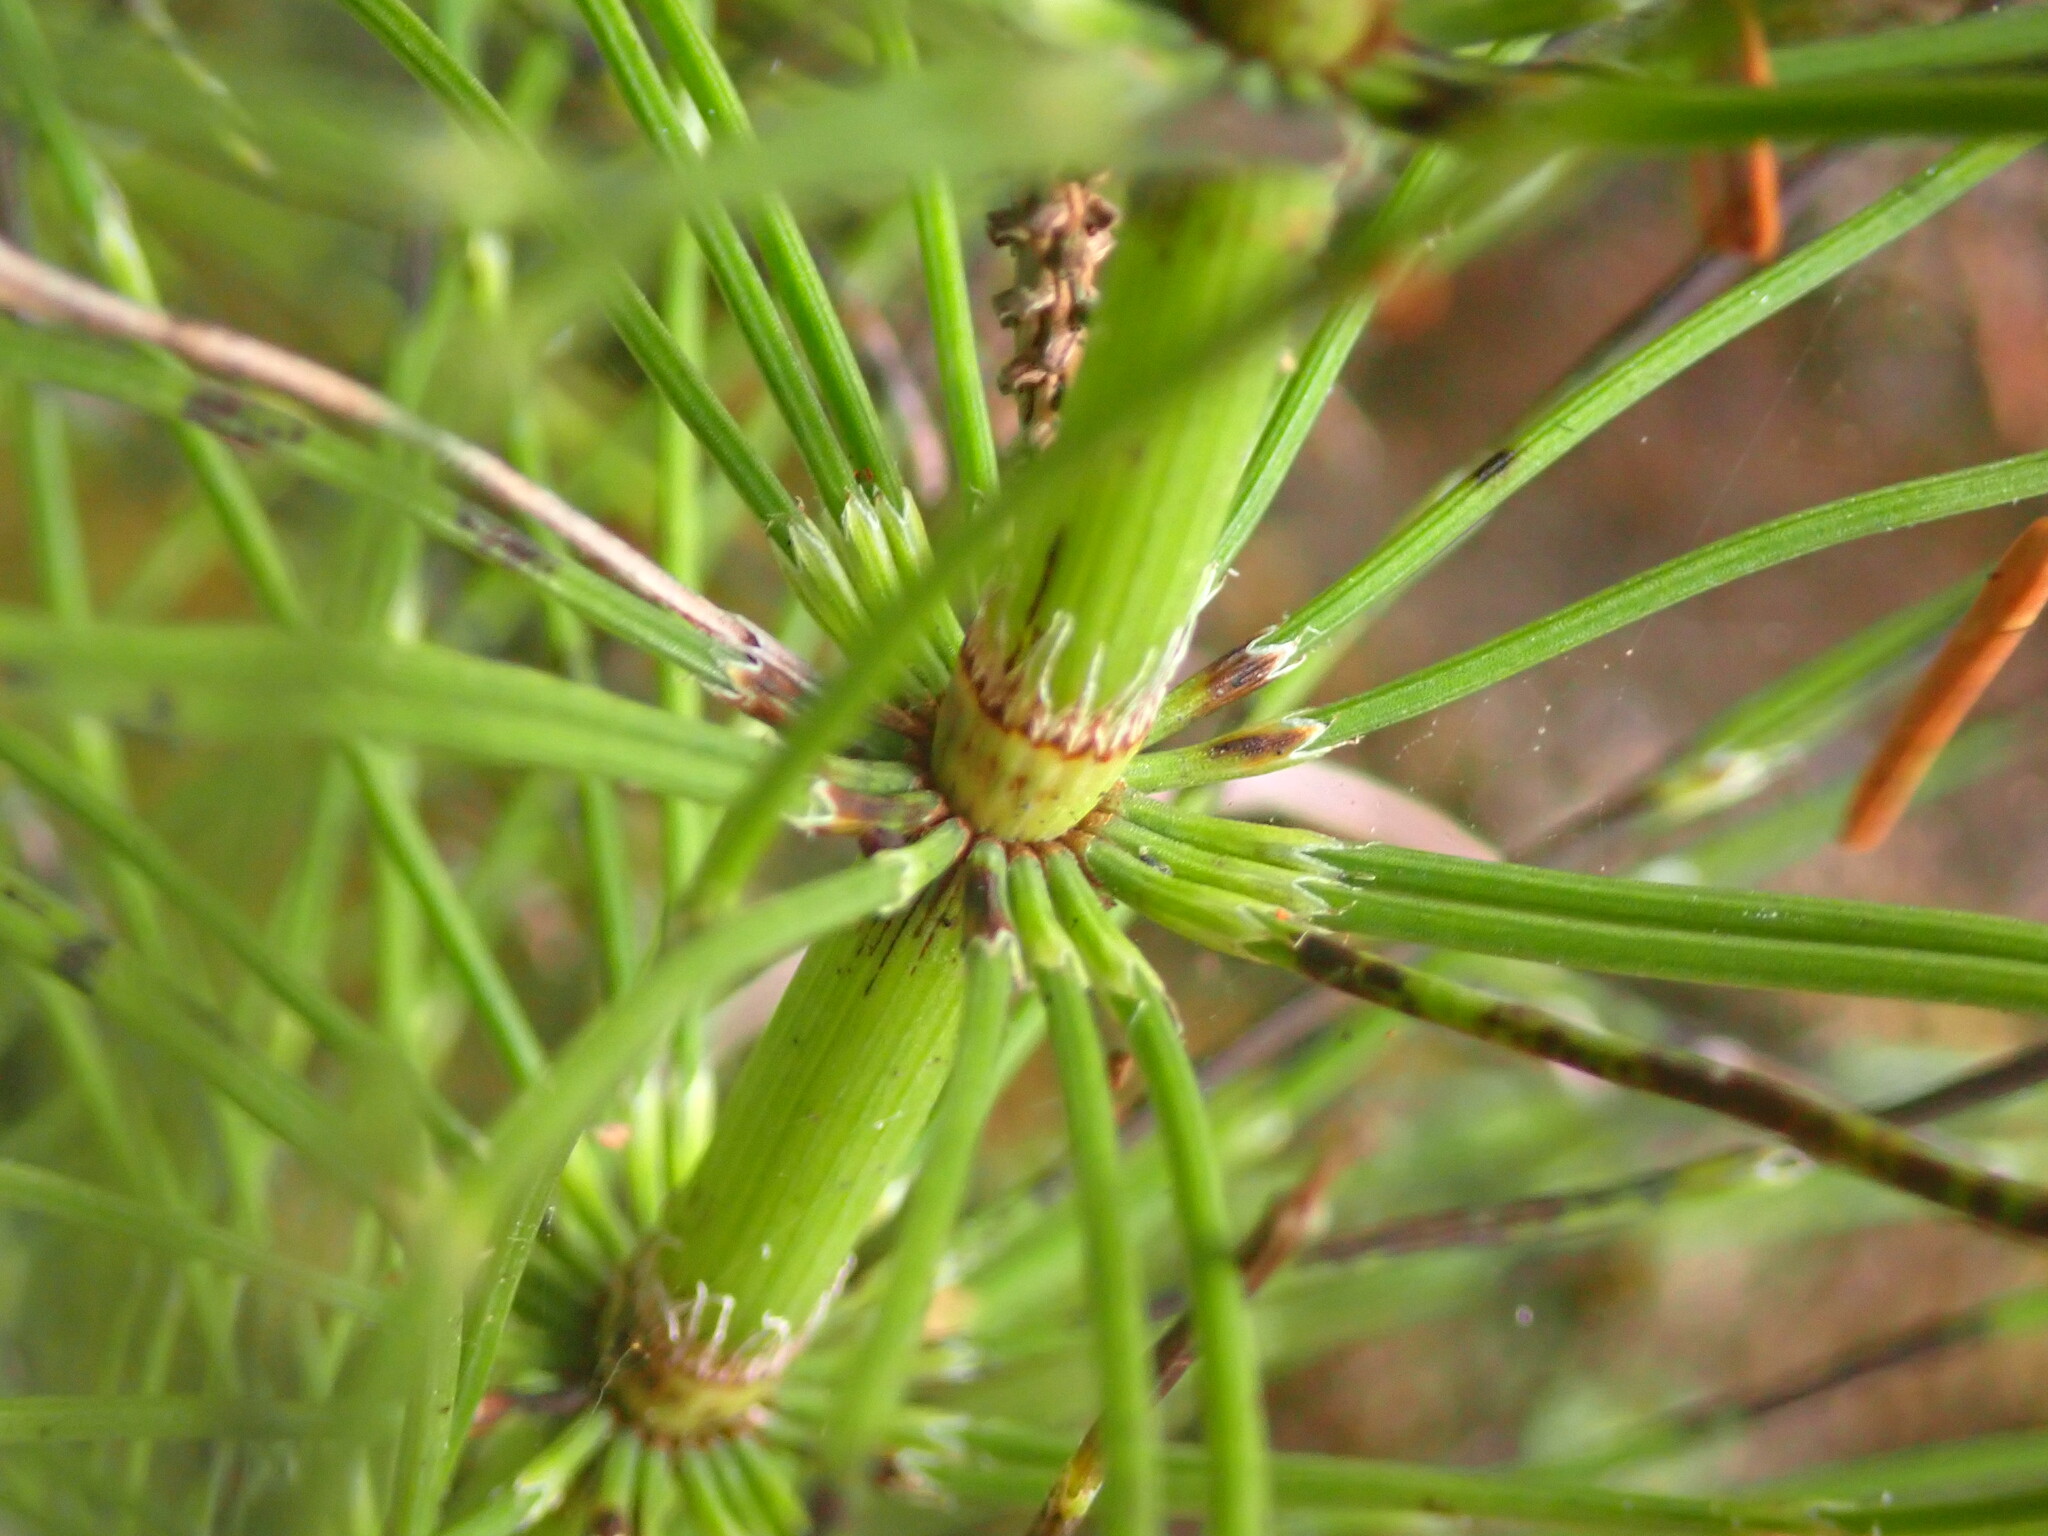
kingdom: Plantae
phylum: Tracheophyta
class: Polypodiopsida
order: Equisetales
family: Equisetaceae
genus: Equisetum
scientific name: Equisetum braunii
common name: Braun's horsetail
